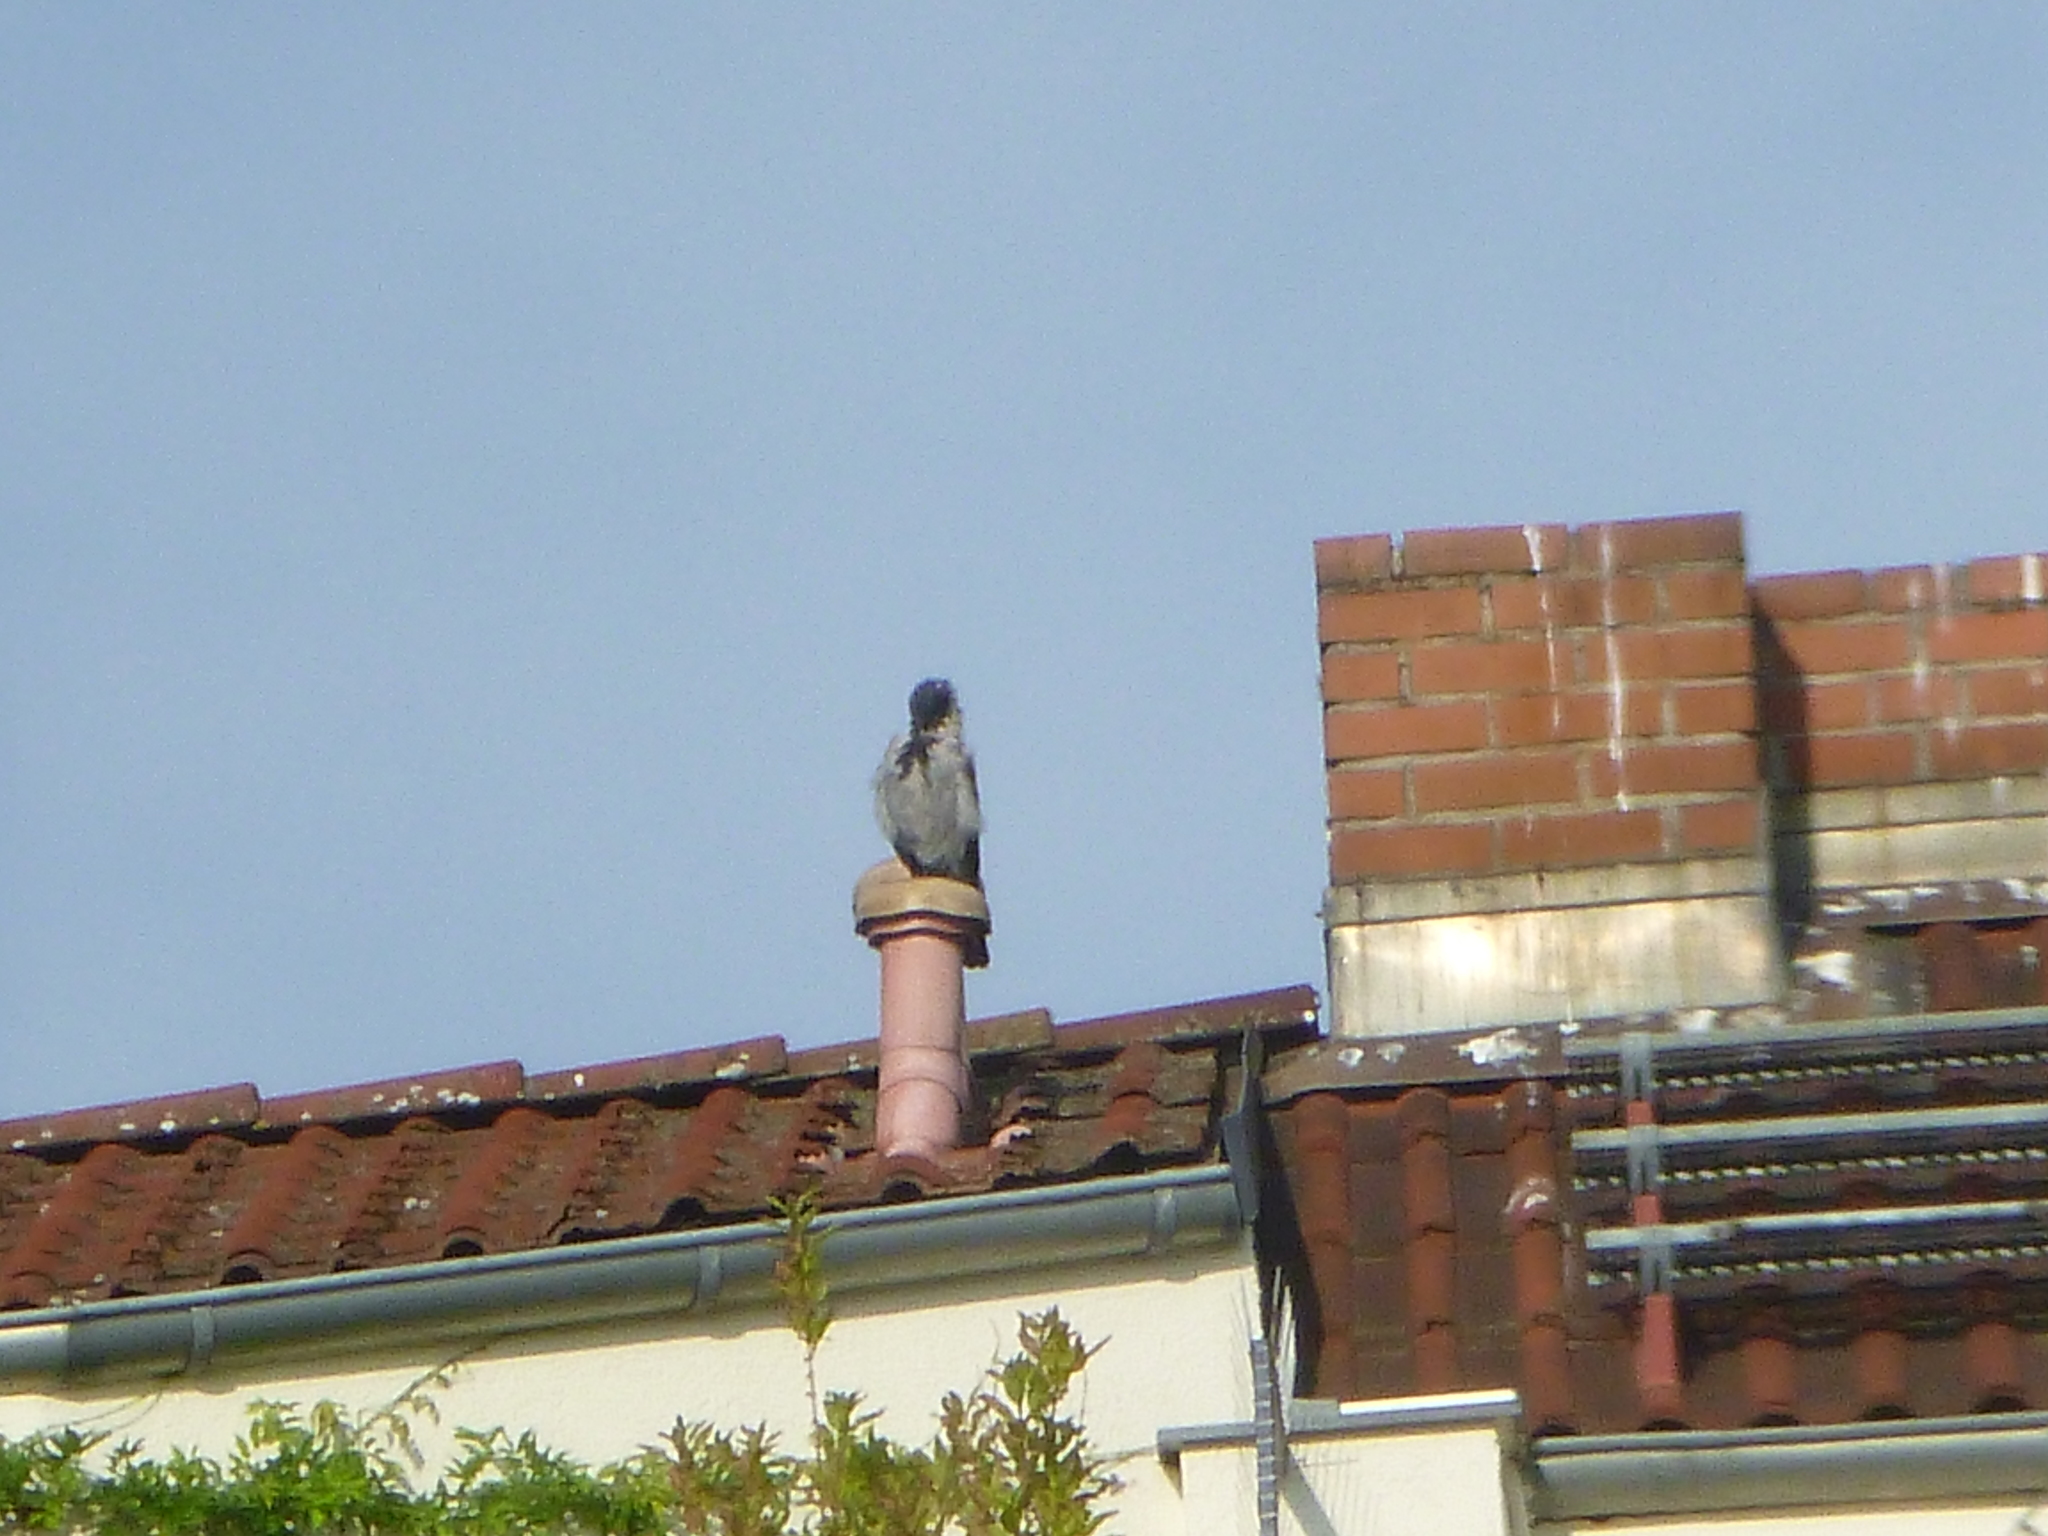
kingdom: Animalia
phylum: Chordata
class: Aves
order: Passeriformes
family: Corvidae
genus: Corvus
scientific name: Corvus cornix
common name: Hooded crow
